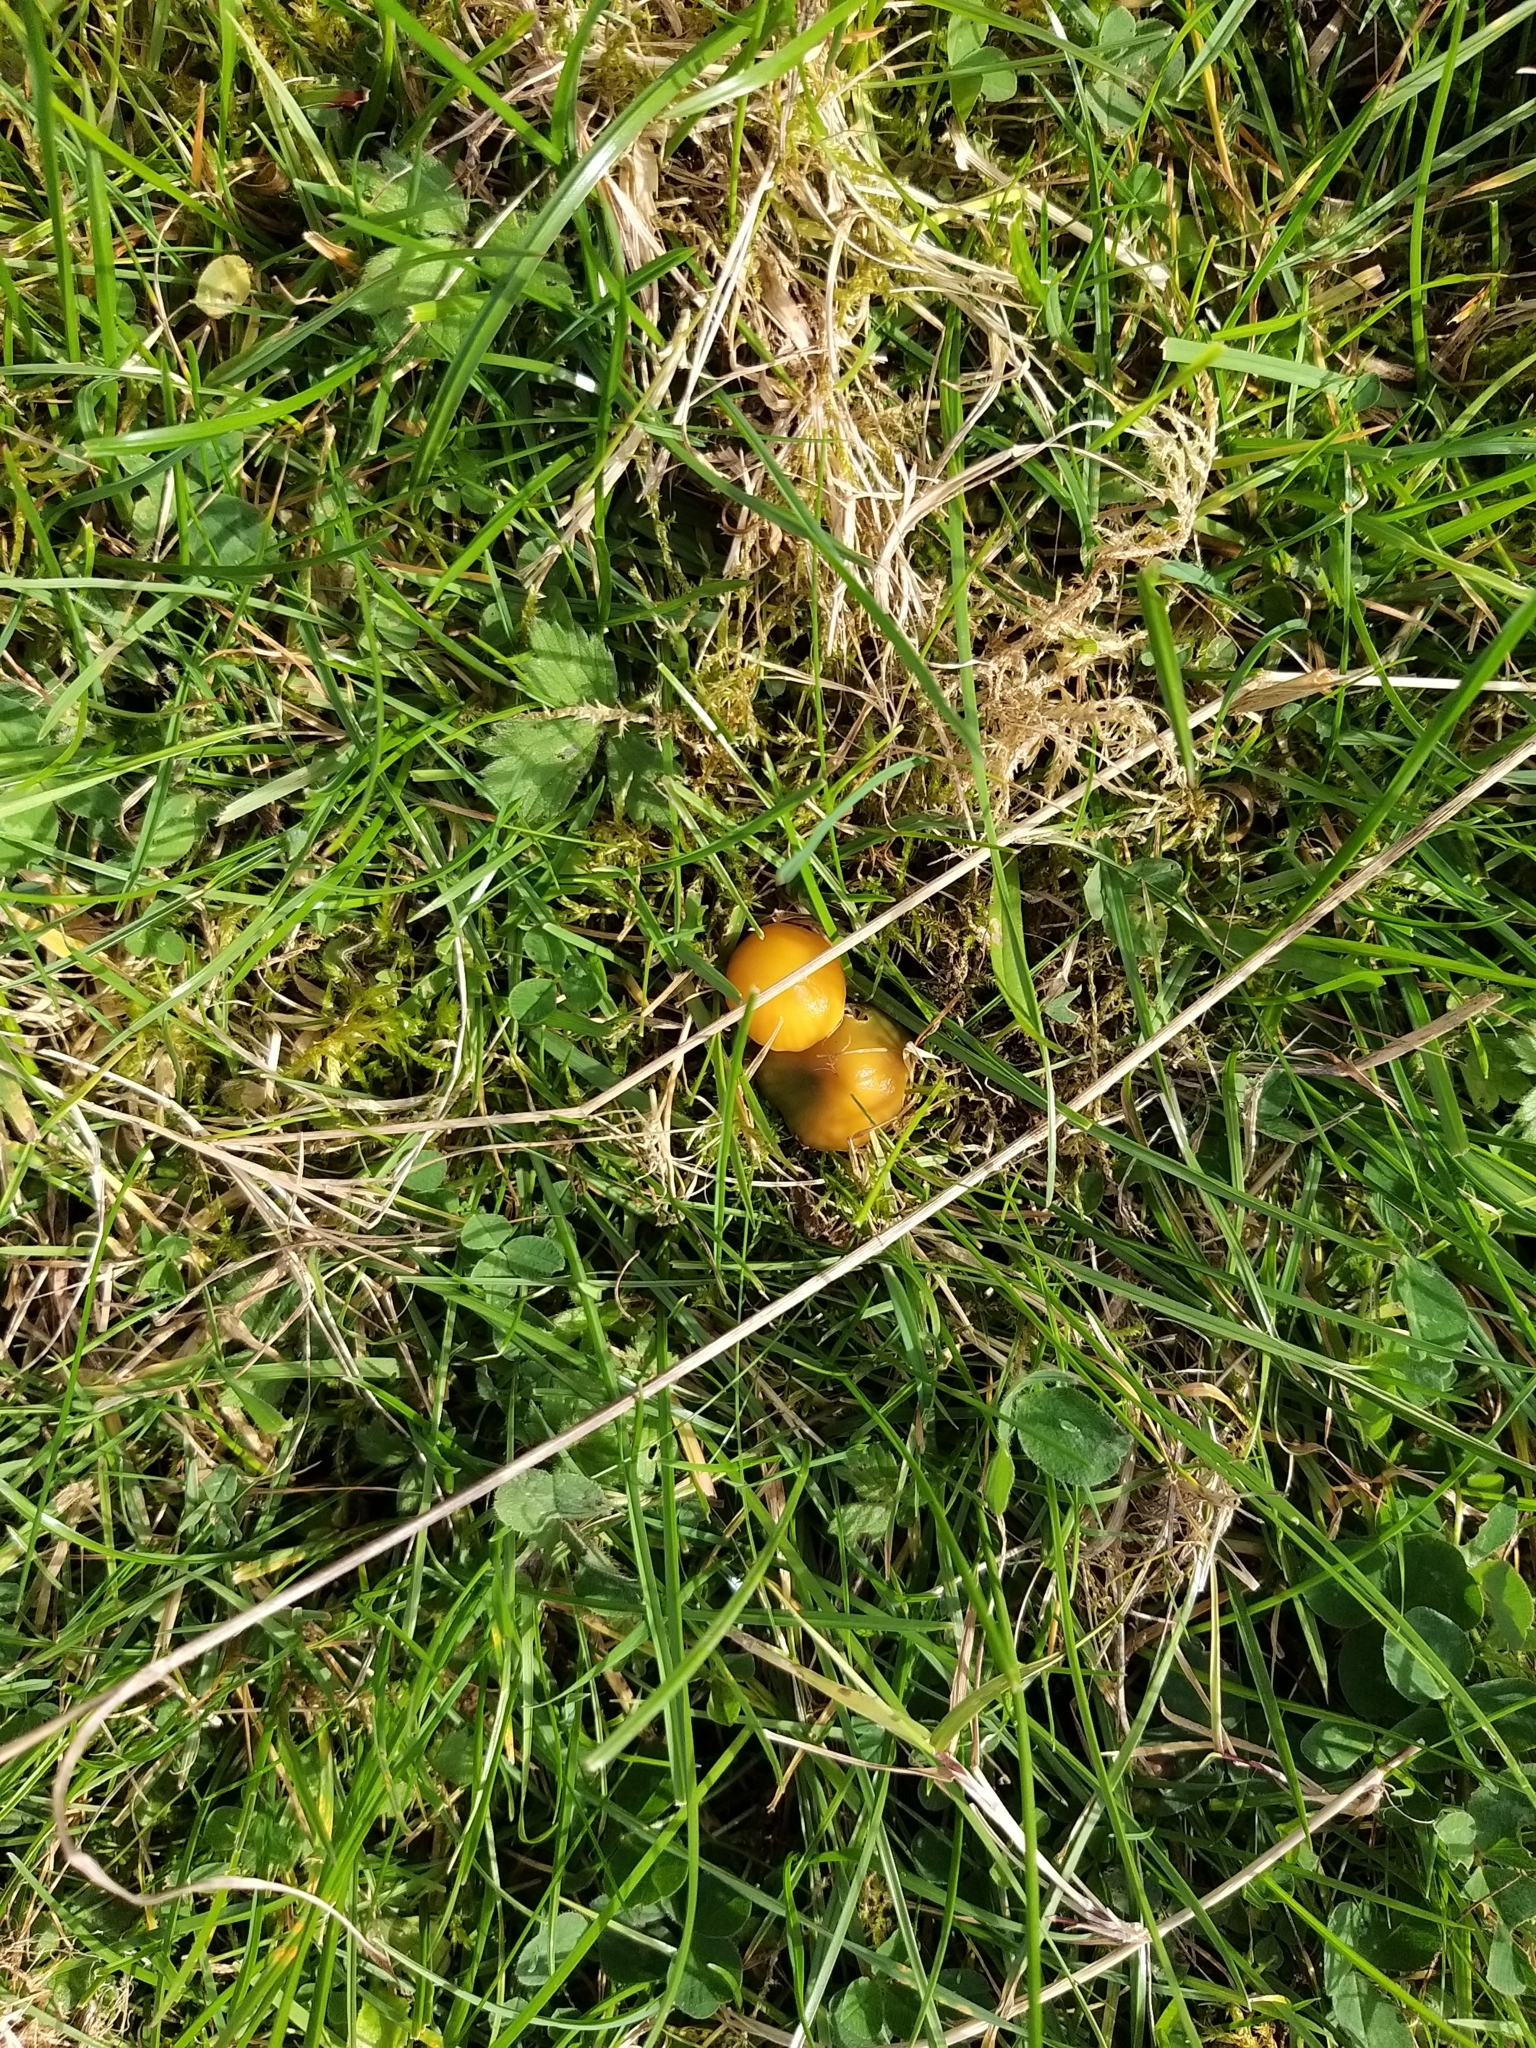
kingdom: Fungi
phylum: Basidiomycota
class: Agaricomycetes
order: Agaricales
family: Hygrophoraceae
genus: Gliophorus
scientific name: Gliophorus psittacinus
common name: Parrot wax-cap
